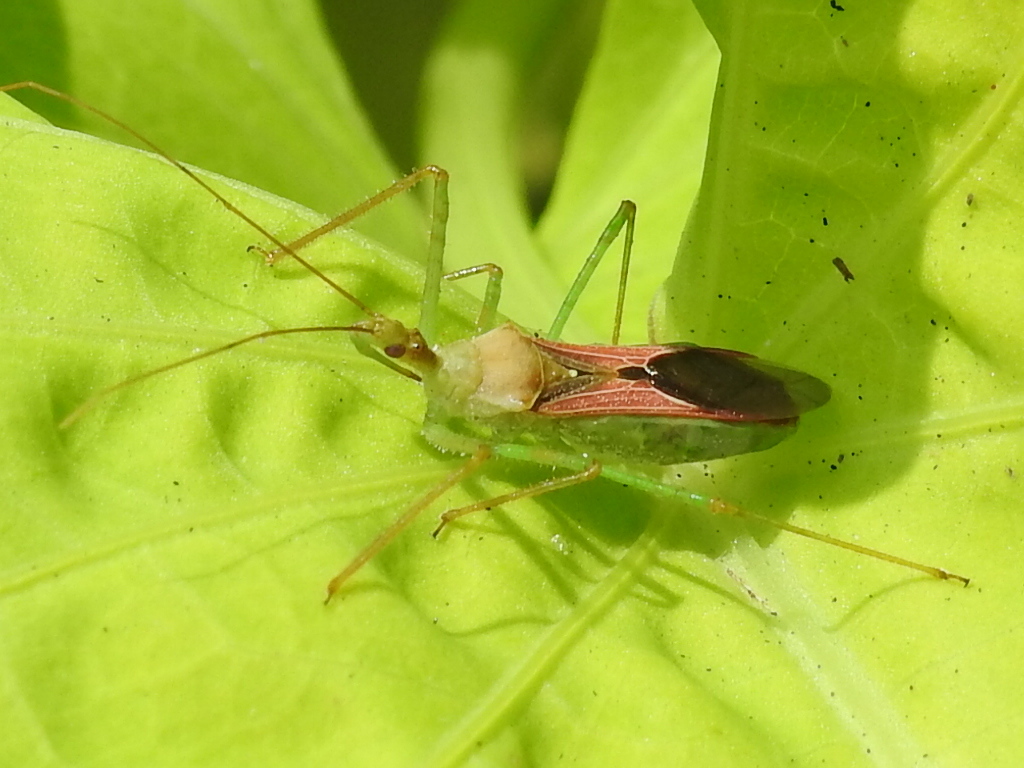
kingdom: Animalia
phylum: Arthropoda
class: Insecta
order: Hemiptera
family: Reduviidae
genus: Zelus
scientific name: Zelus renardii
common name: Assassin bug
